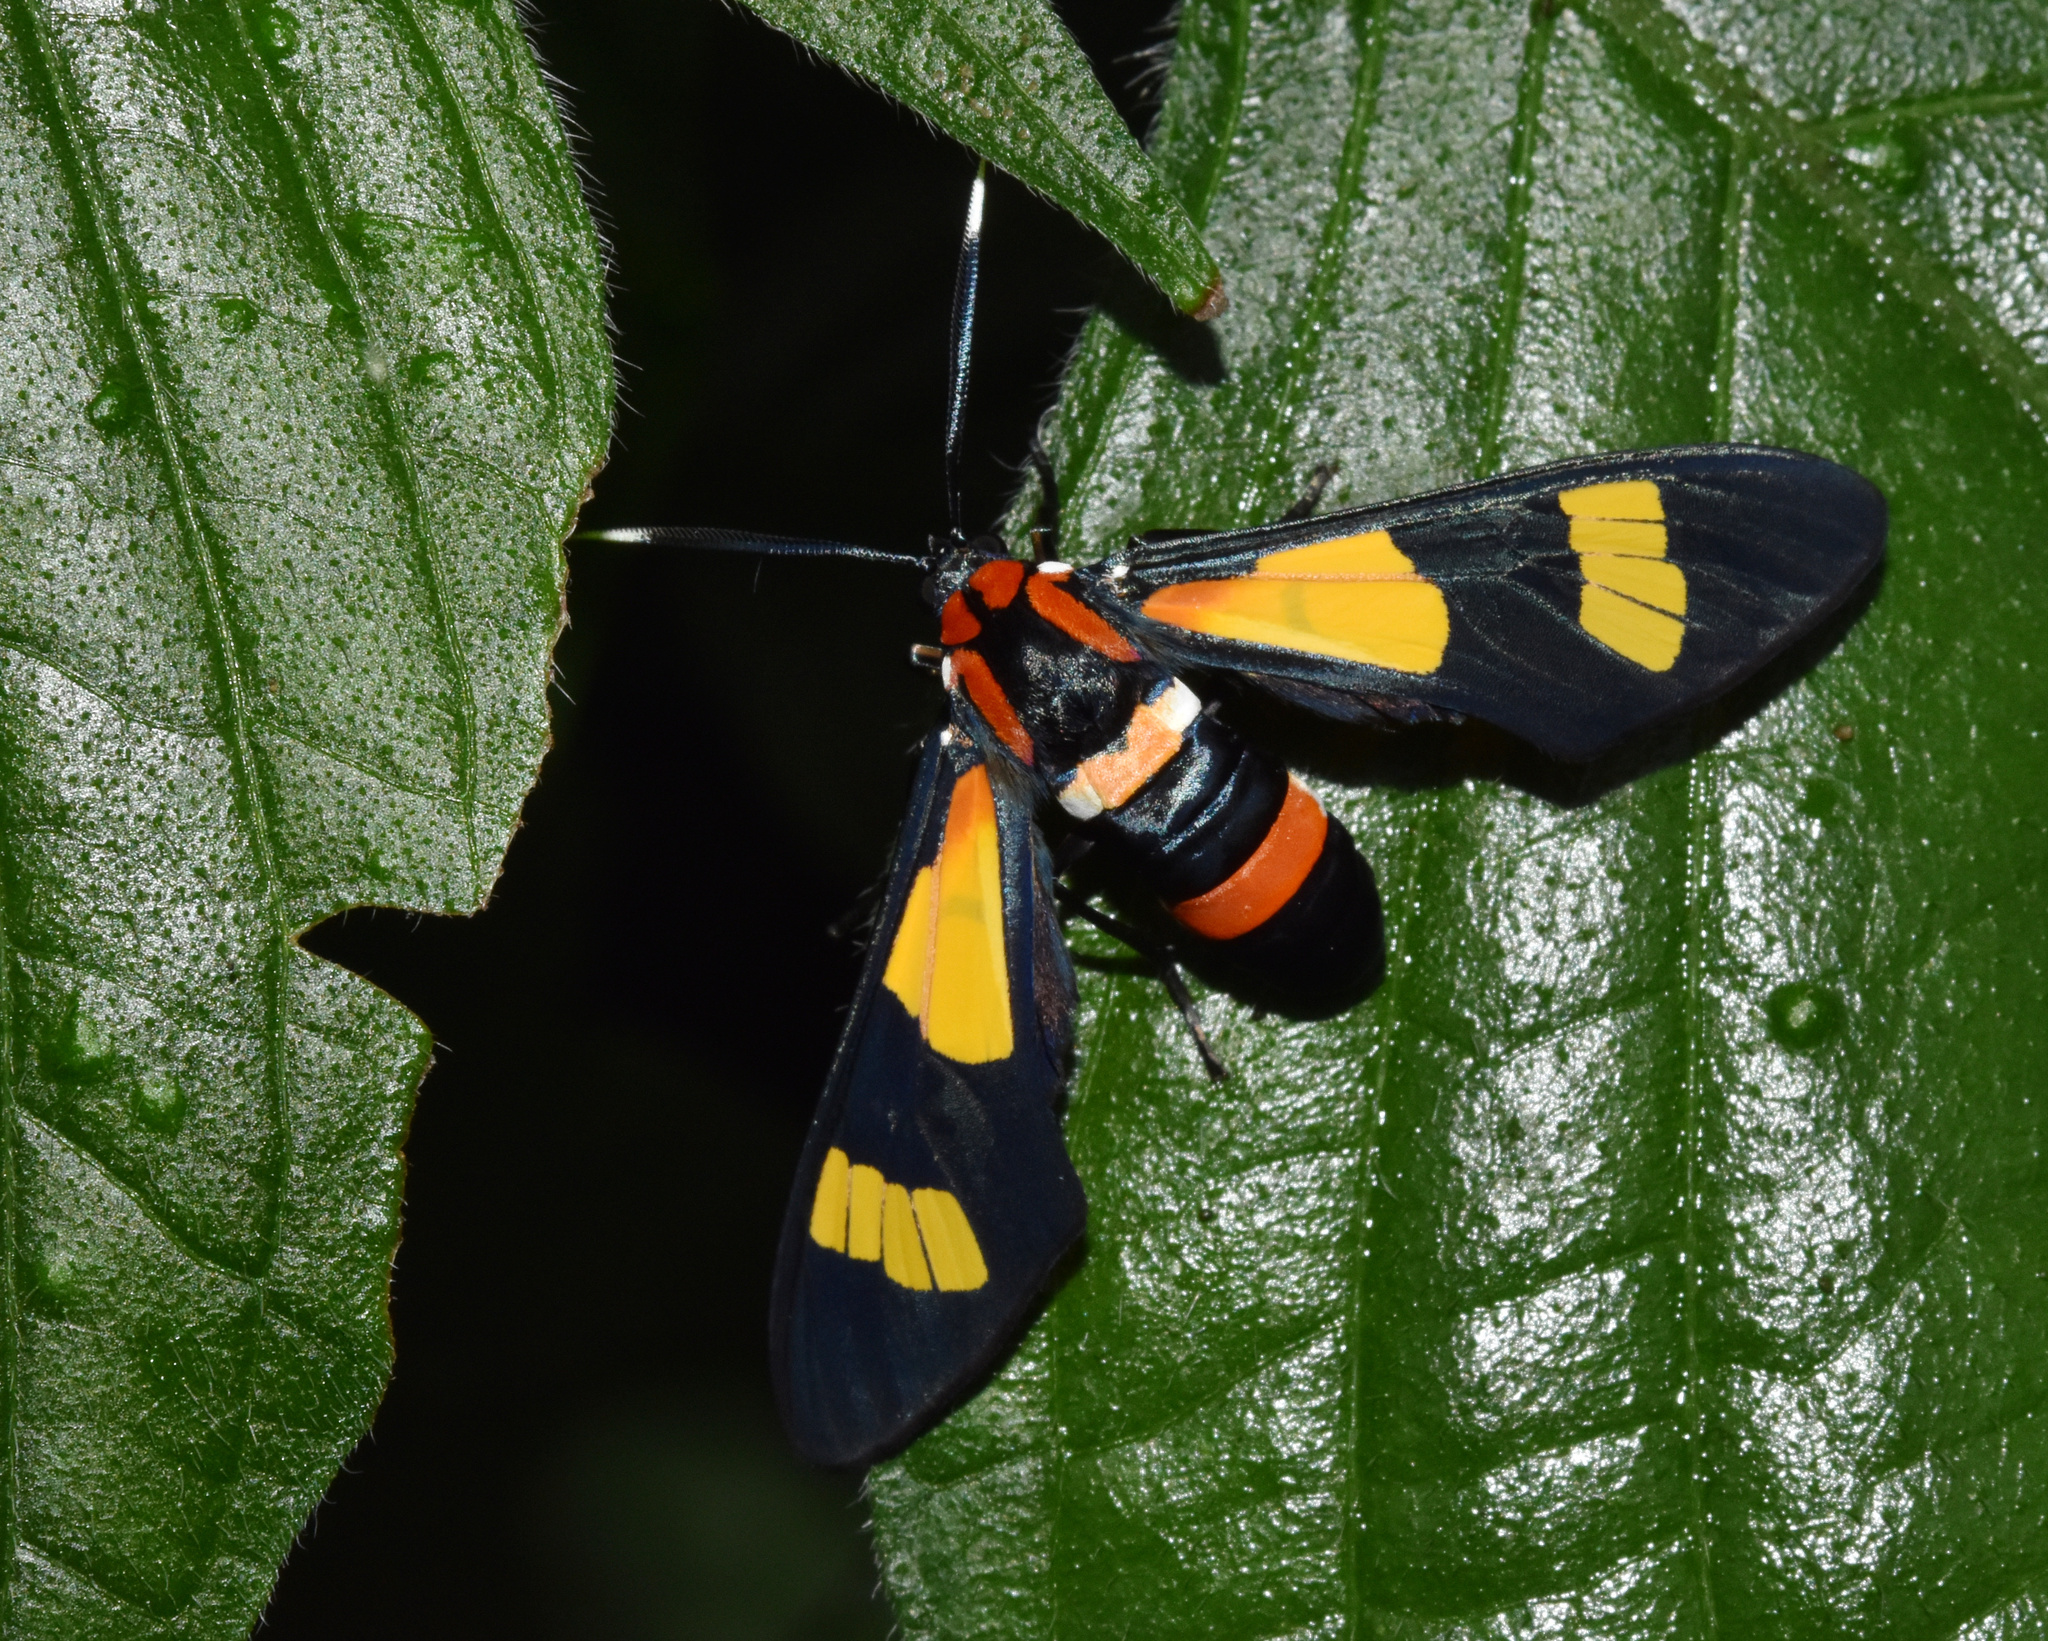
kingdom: Animalia
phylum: Arthropoda
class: Insecta
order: Lepidoptera
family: Erebidae
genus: Euchromia
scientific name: Euchromia amoena
